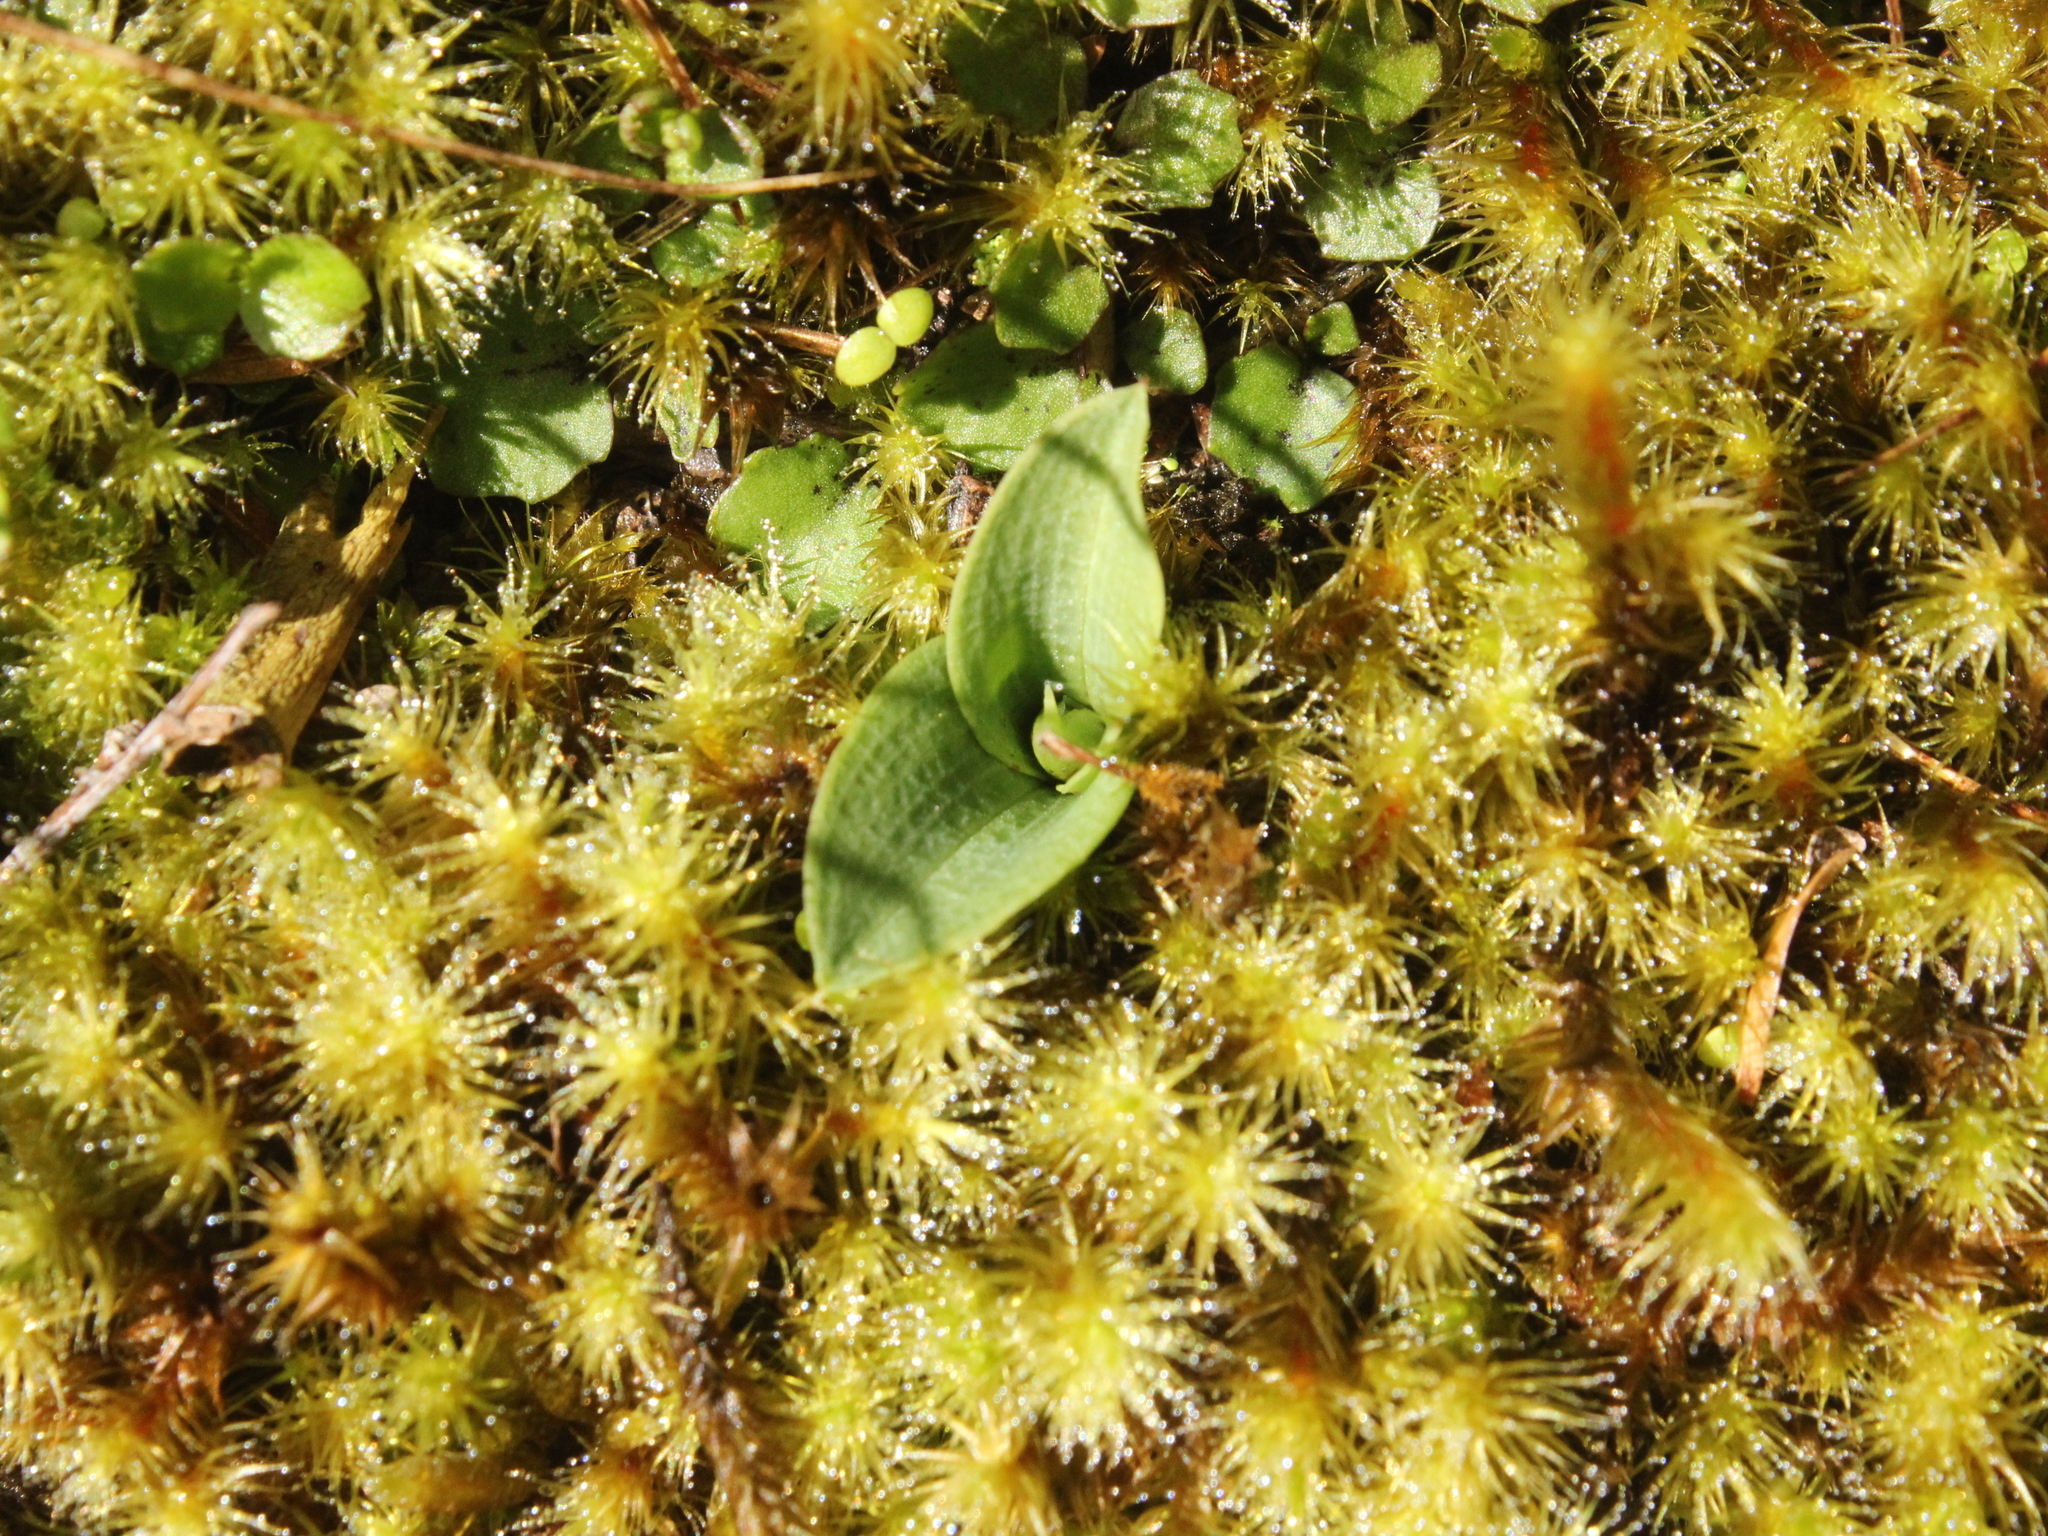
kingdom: Plantae
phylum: Tracheophyta
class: Liliopsida
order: Asparagales
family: Orchidaceae
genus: Chiloglottis
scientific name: Chiloglottis cornuta
